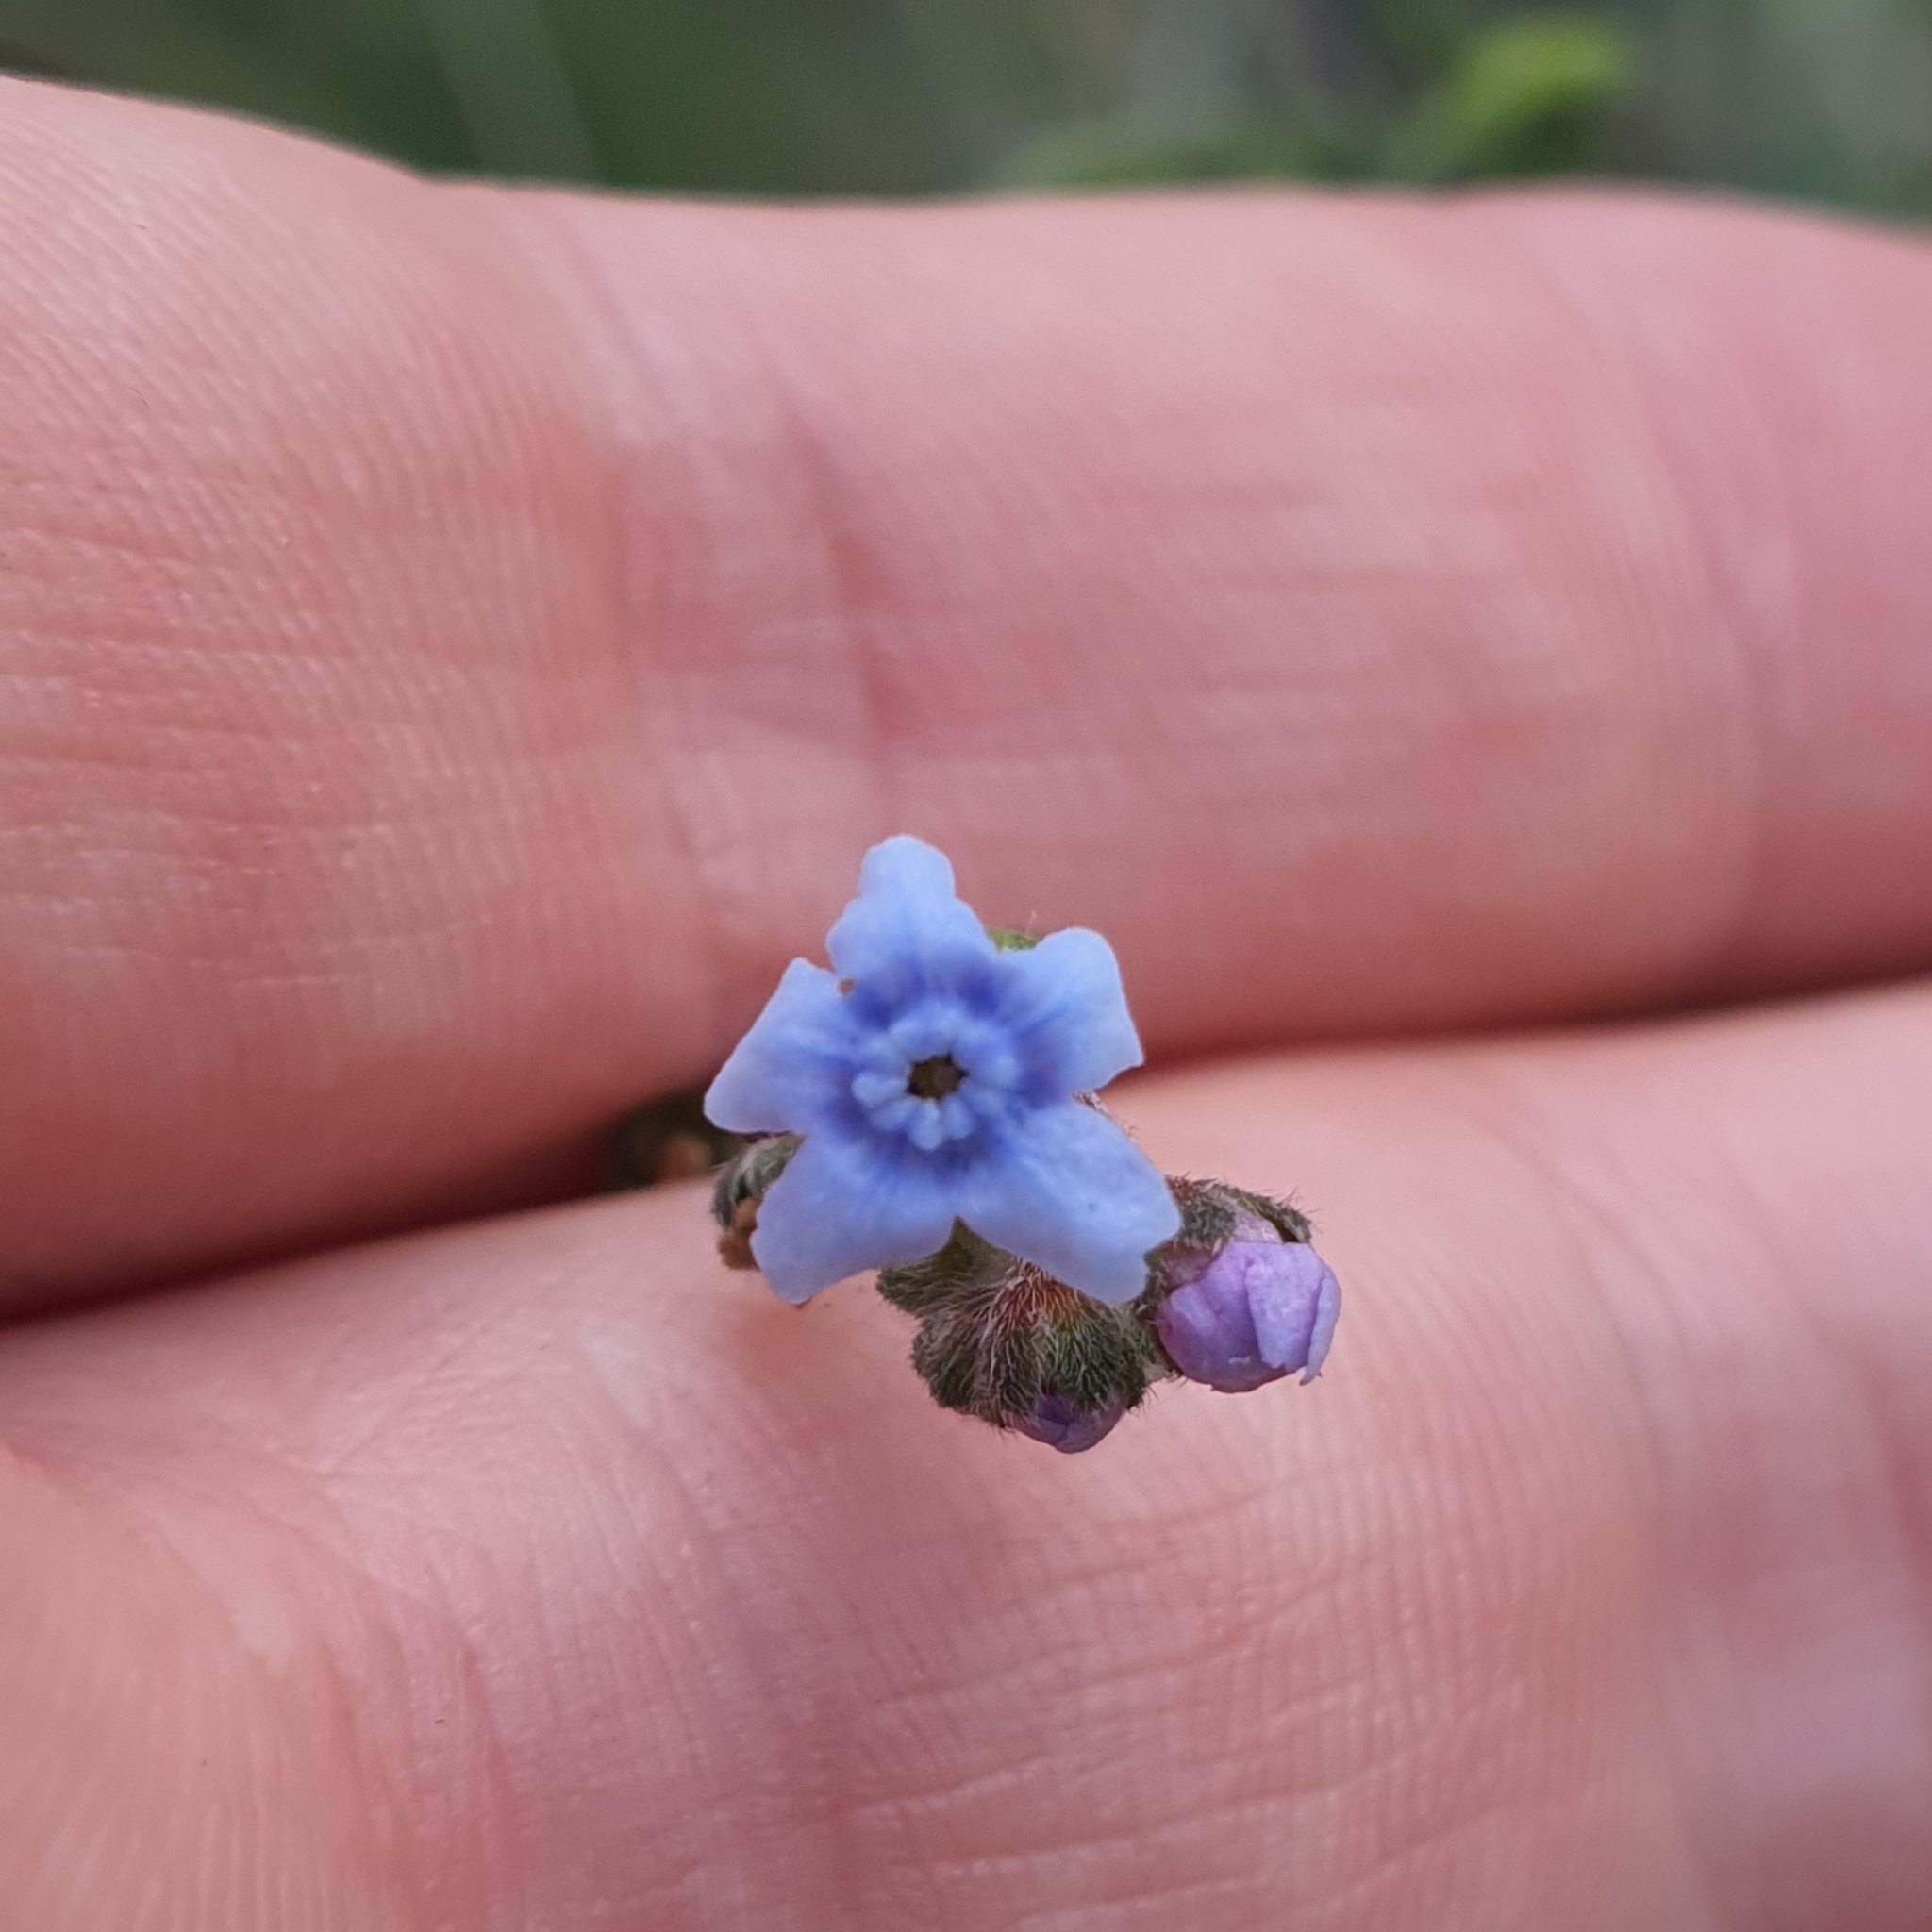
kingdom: Plantae
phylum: Tracheophyta
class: Magnoliopsida
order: Boraginales
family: Boraginaceae
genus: Cynoglossum
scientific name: Cynoglossum australe
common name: Australian hound's-tongue
